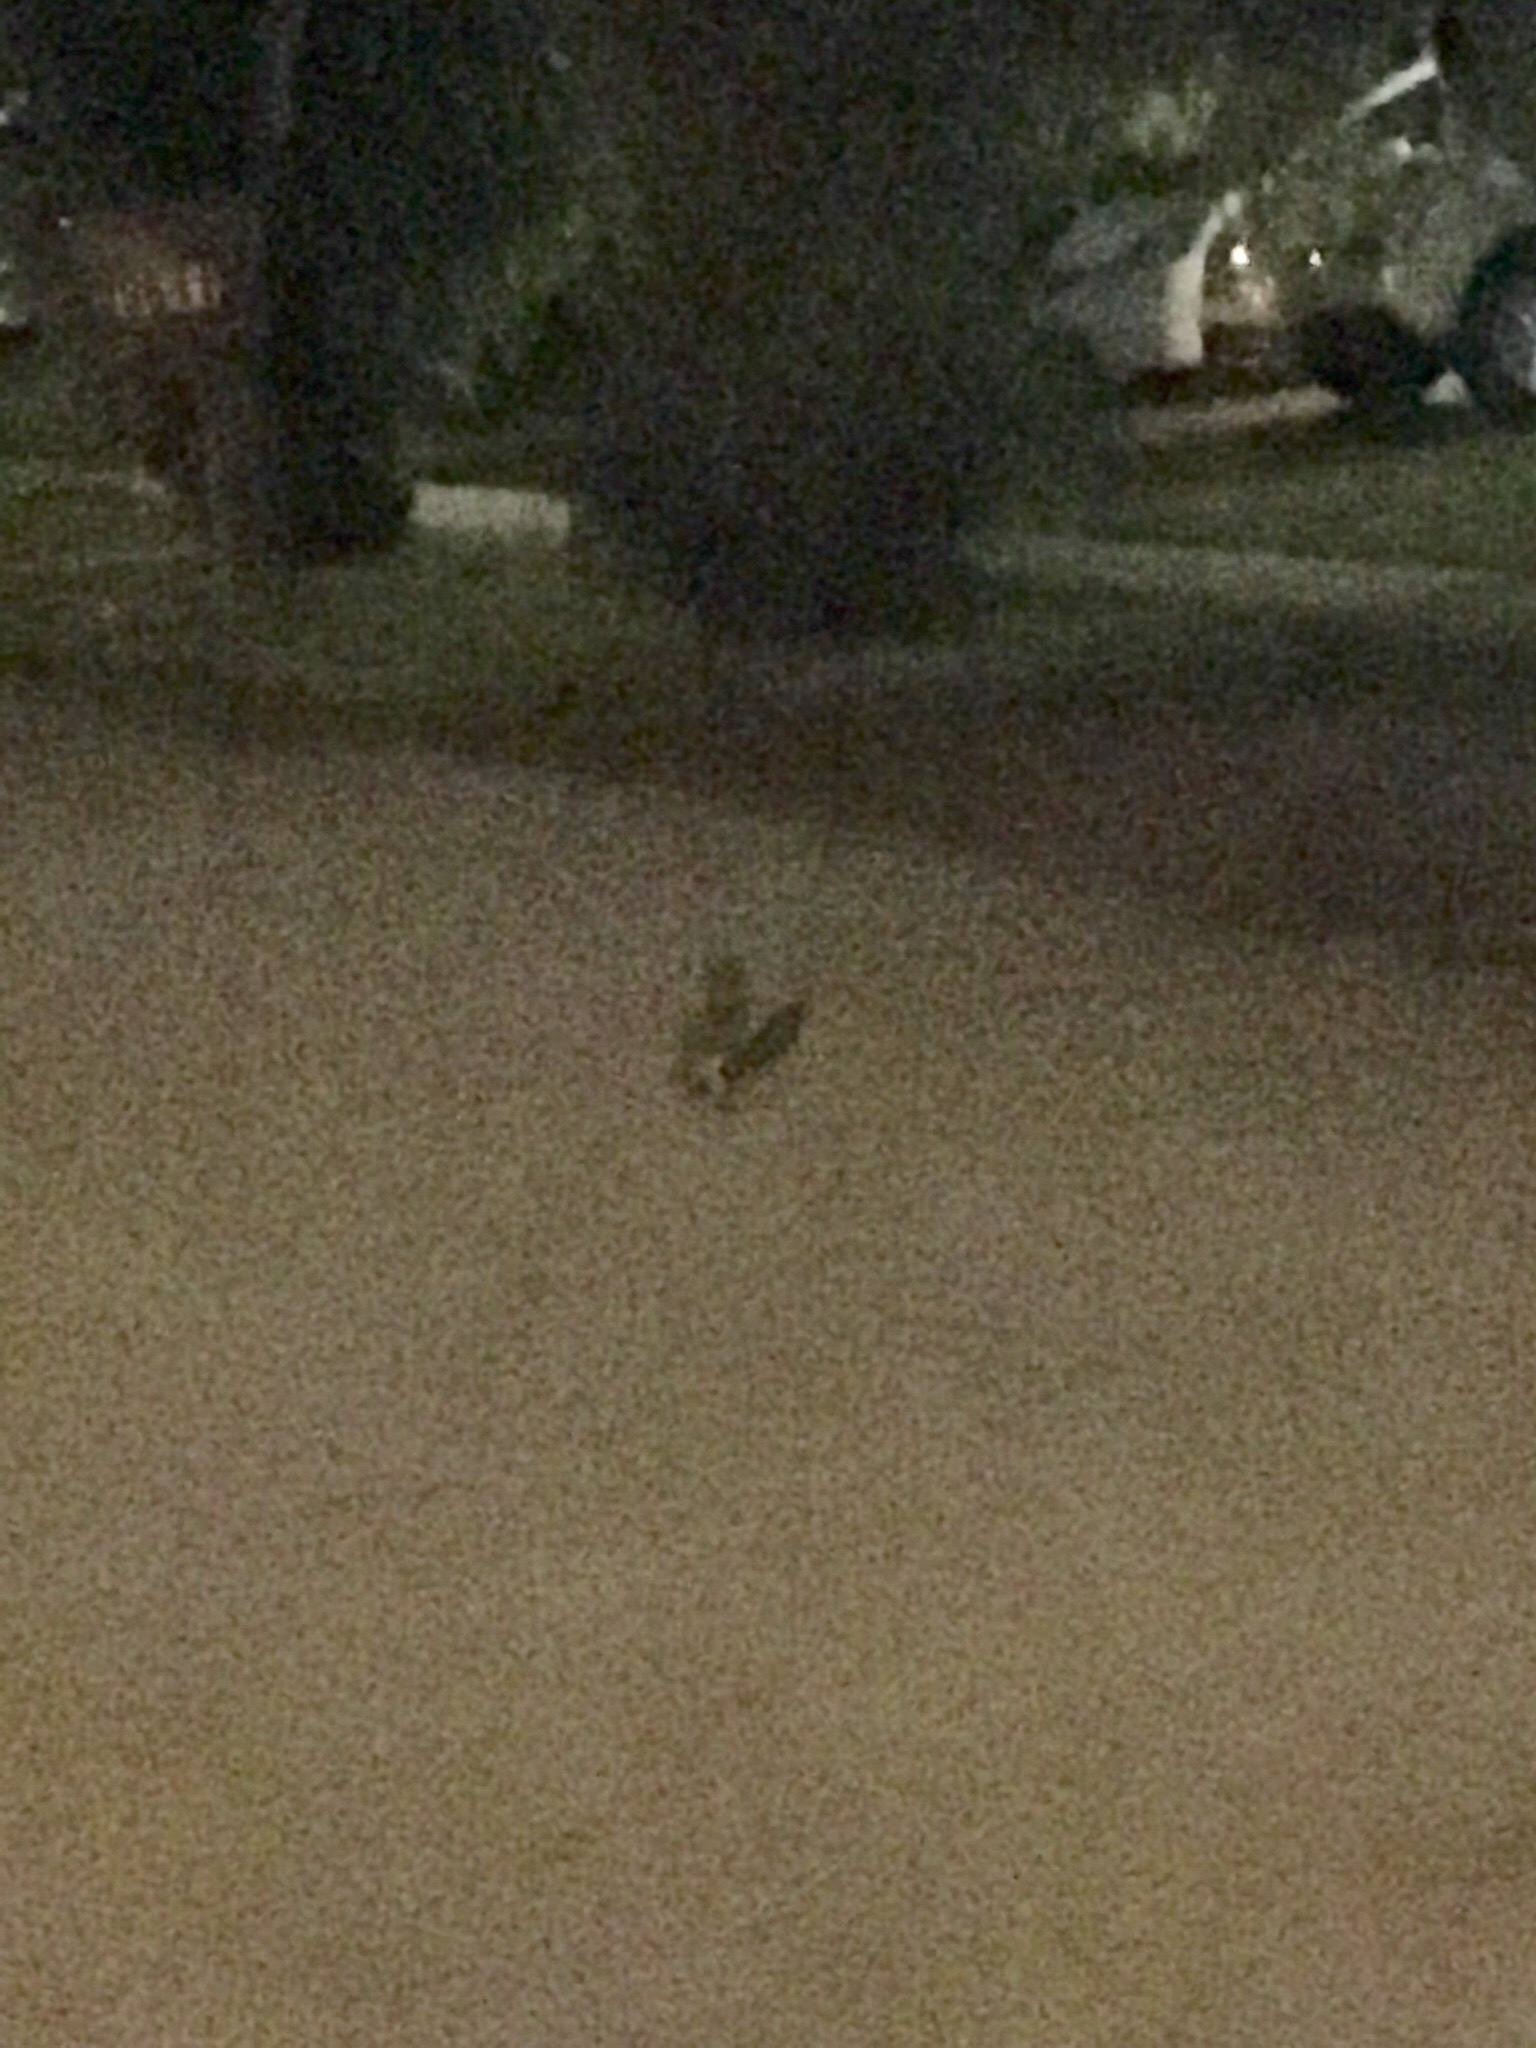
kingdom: Animalia
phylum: Chordata
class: Aves
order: Strigiformes
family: Strigidae
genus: Athene
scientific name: Athene cunicularia
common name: Burrowing owl
